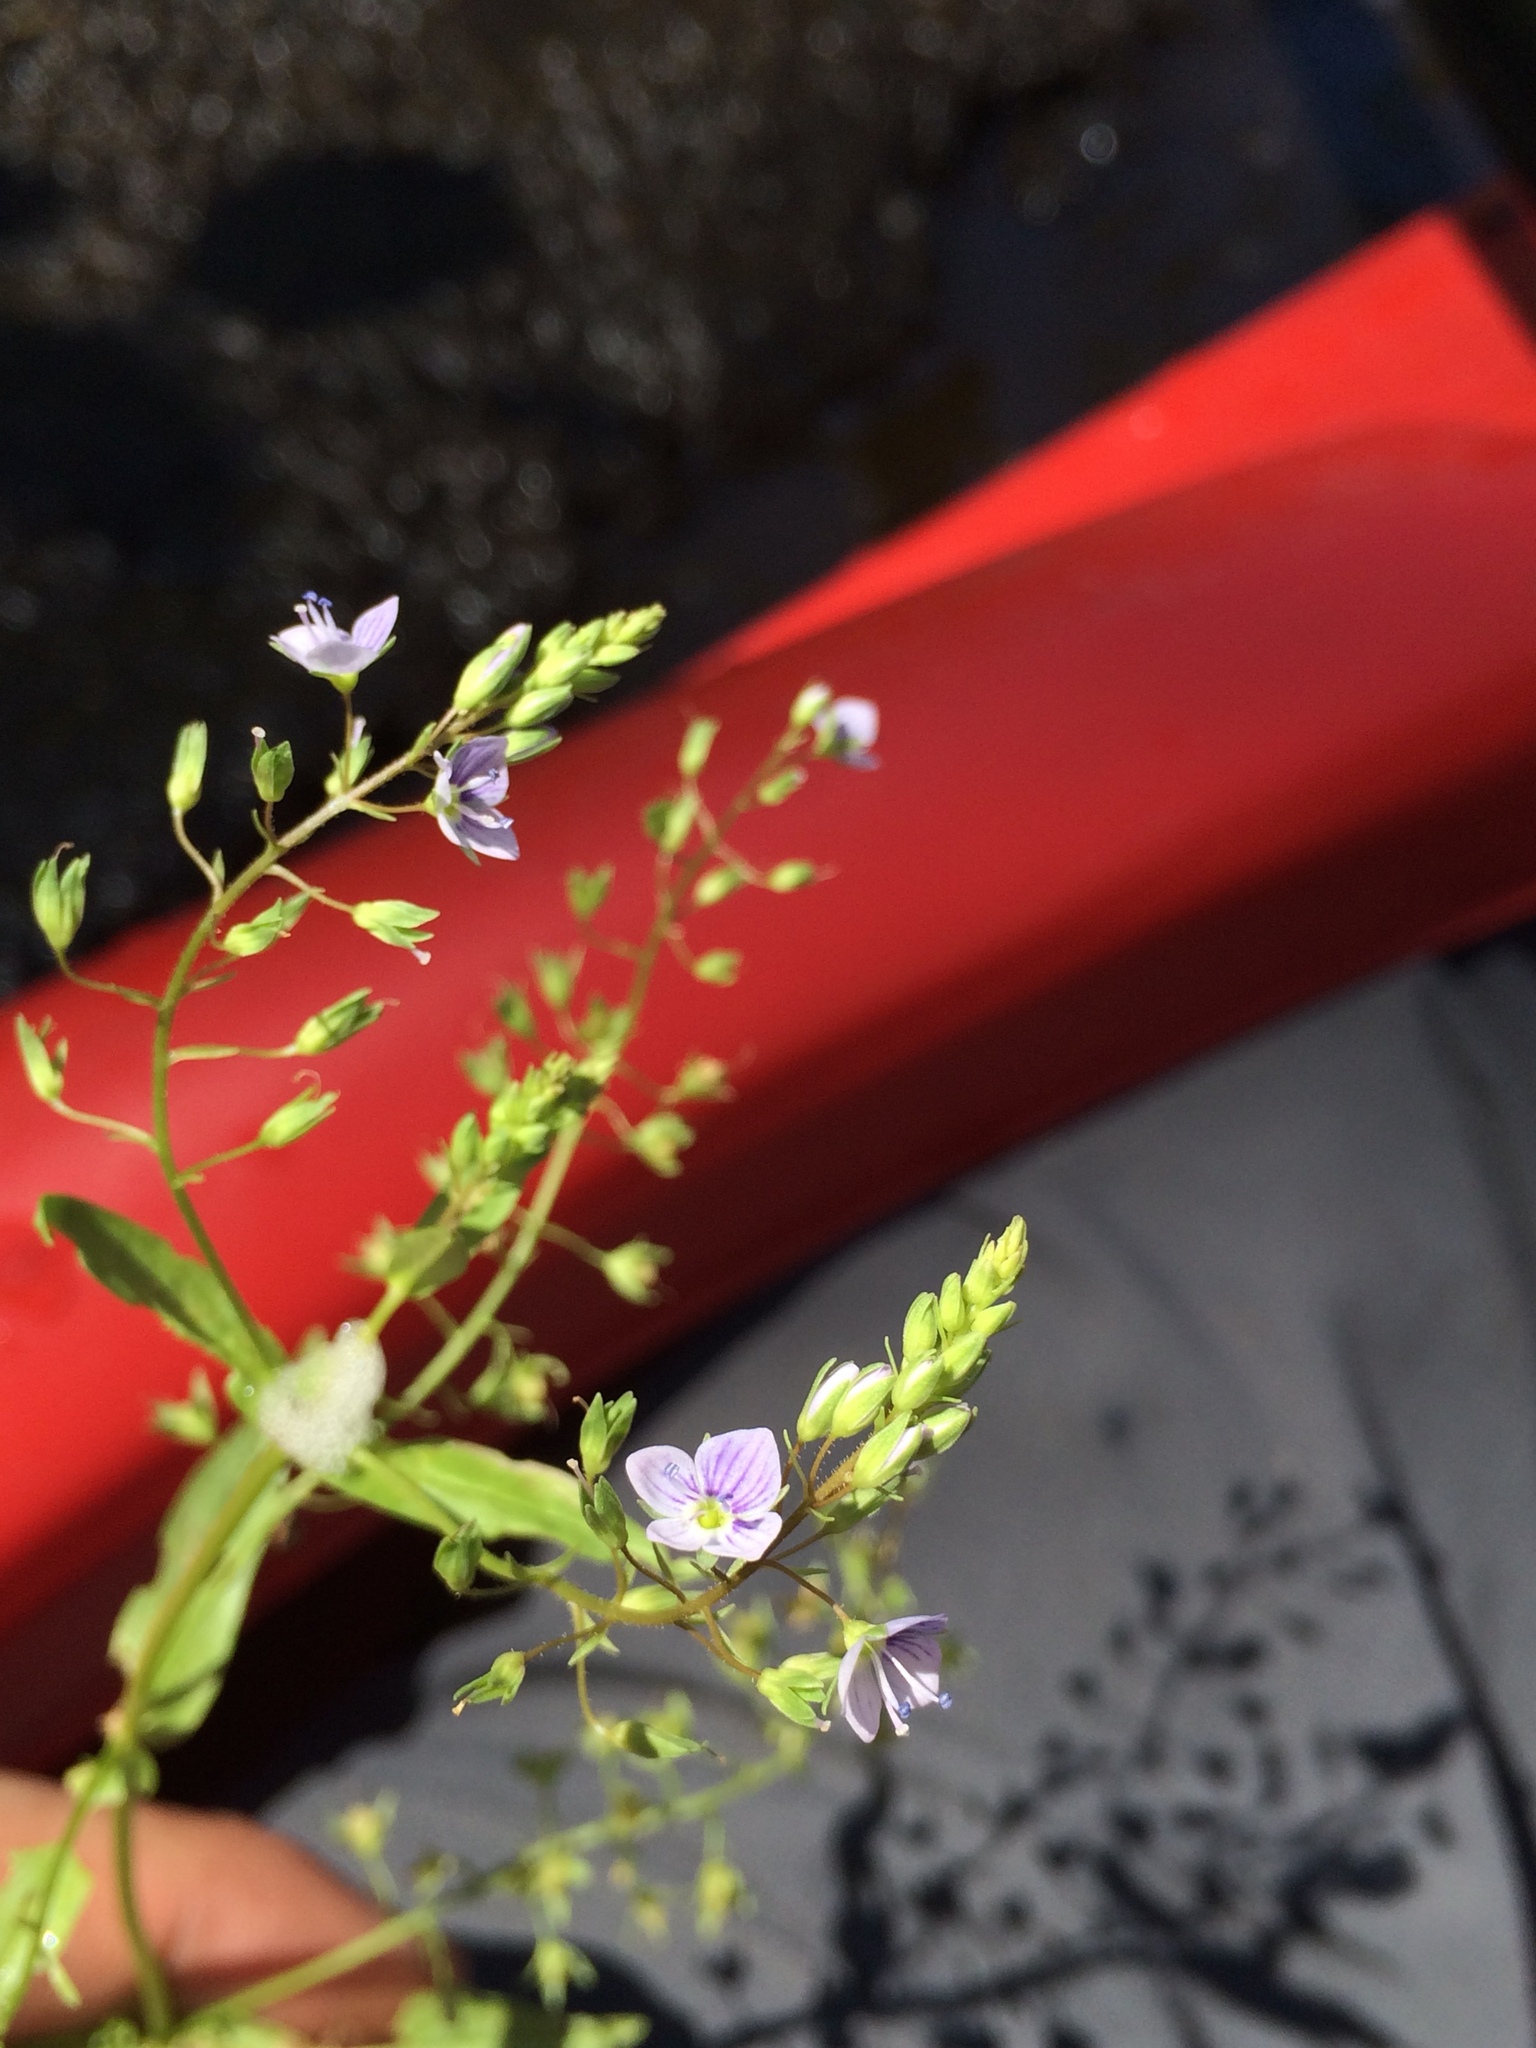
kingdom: Plantae
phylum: Tracheophyta
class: Magnoliopsida
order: Lamiales
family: Plantaginaceae
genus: Veronica
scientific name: Veronica anagallis-aquatica
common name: Water speedwell
